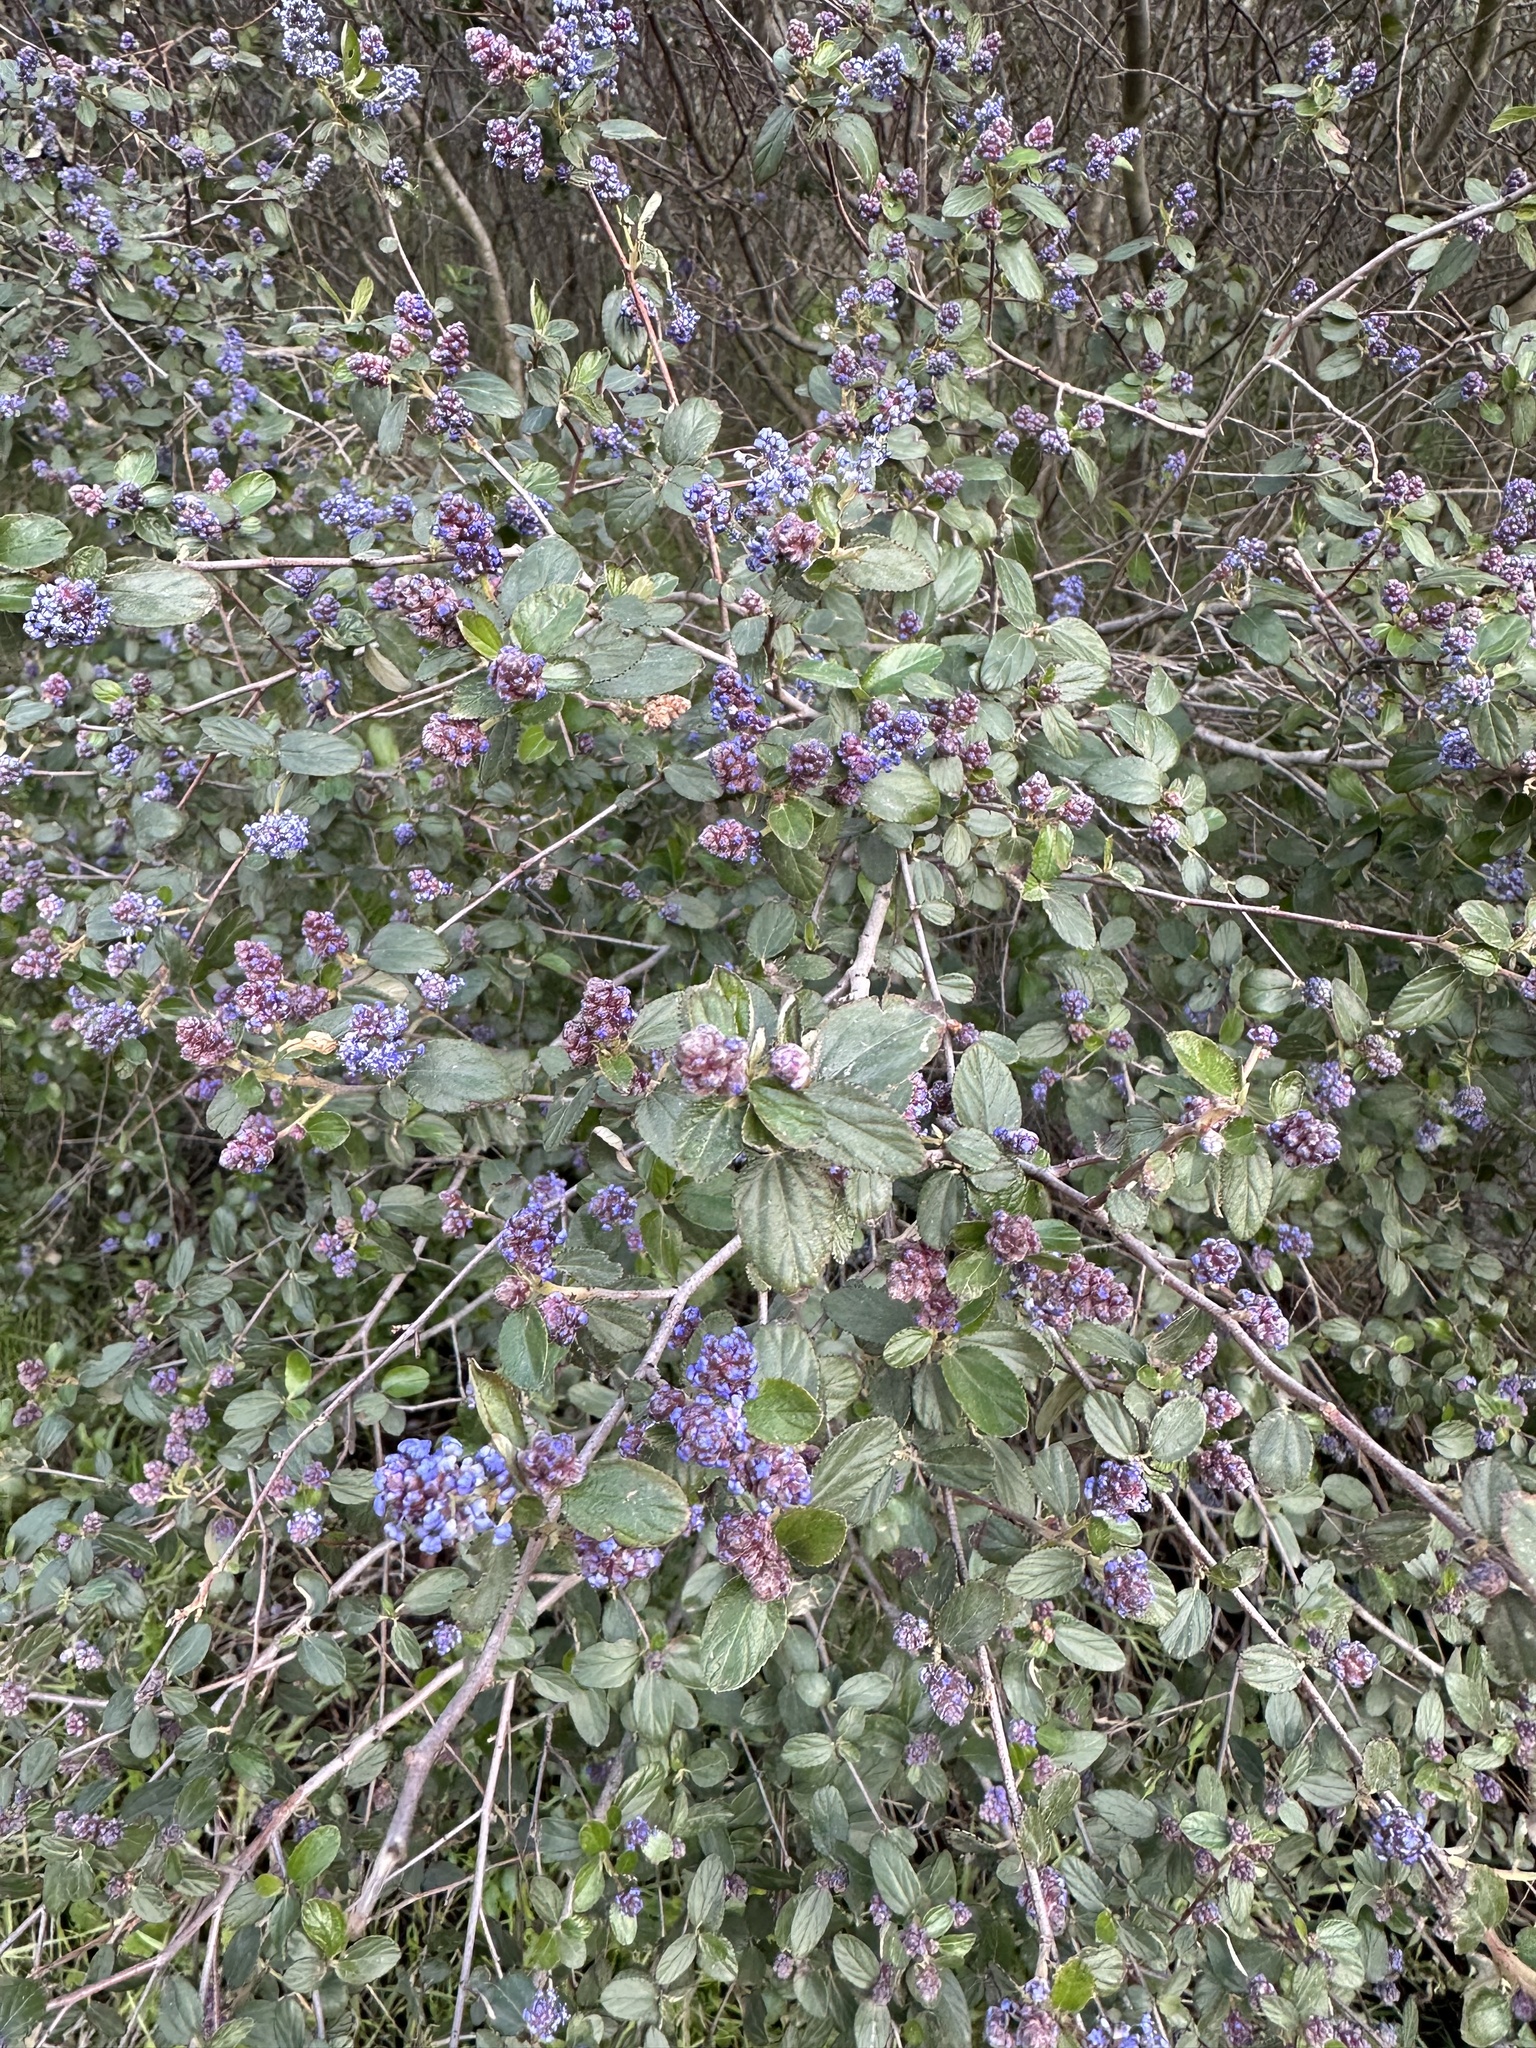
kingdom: Plantae
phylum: Tracheophyta
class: Magnoliopsida
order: Rosales
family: Rhamnaceae
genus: Ceanothus
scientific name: Ceanothus tomentosus
